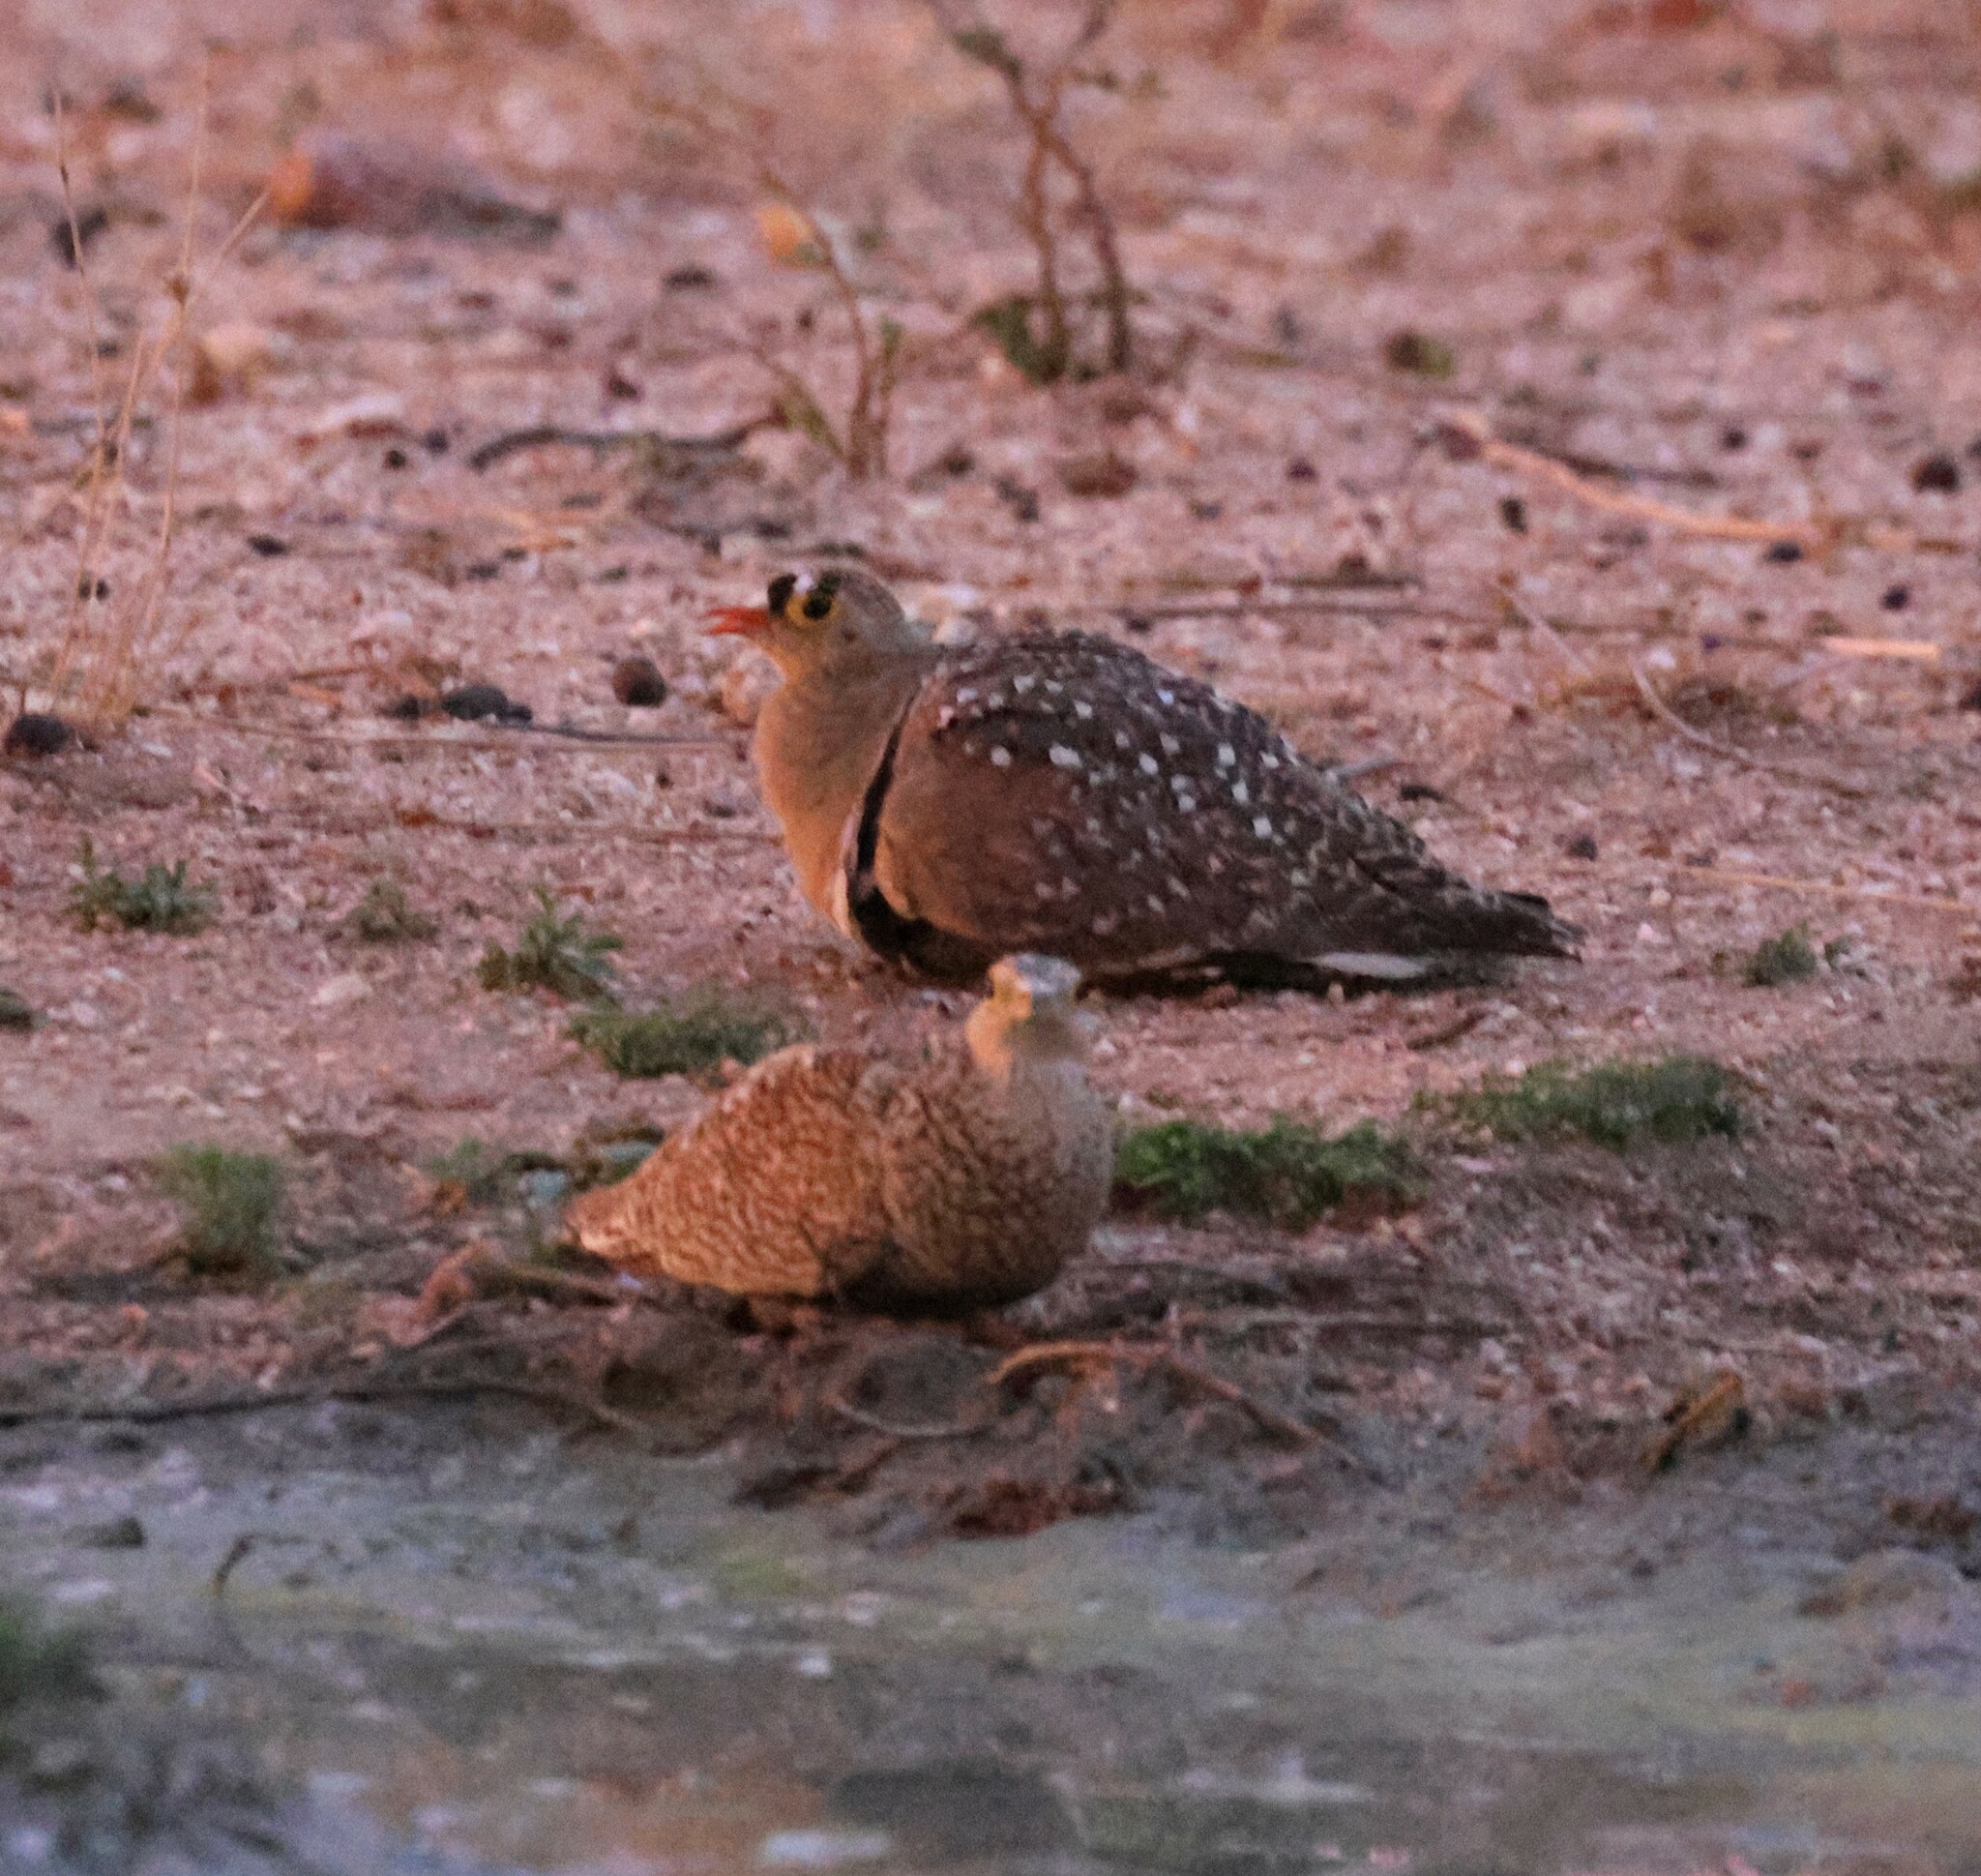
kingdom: Animalia
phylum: Chordata
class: Aves
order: Pteroclidiformes
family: Pteroclididae
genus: Pterocles
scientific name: Pterocles bicinctus
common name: Double-banded sandgrouse
